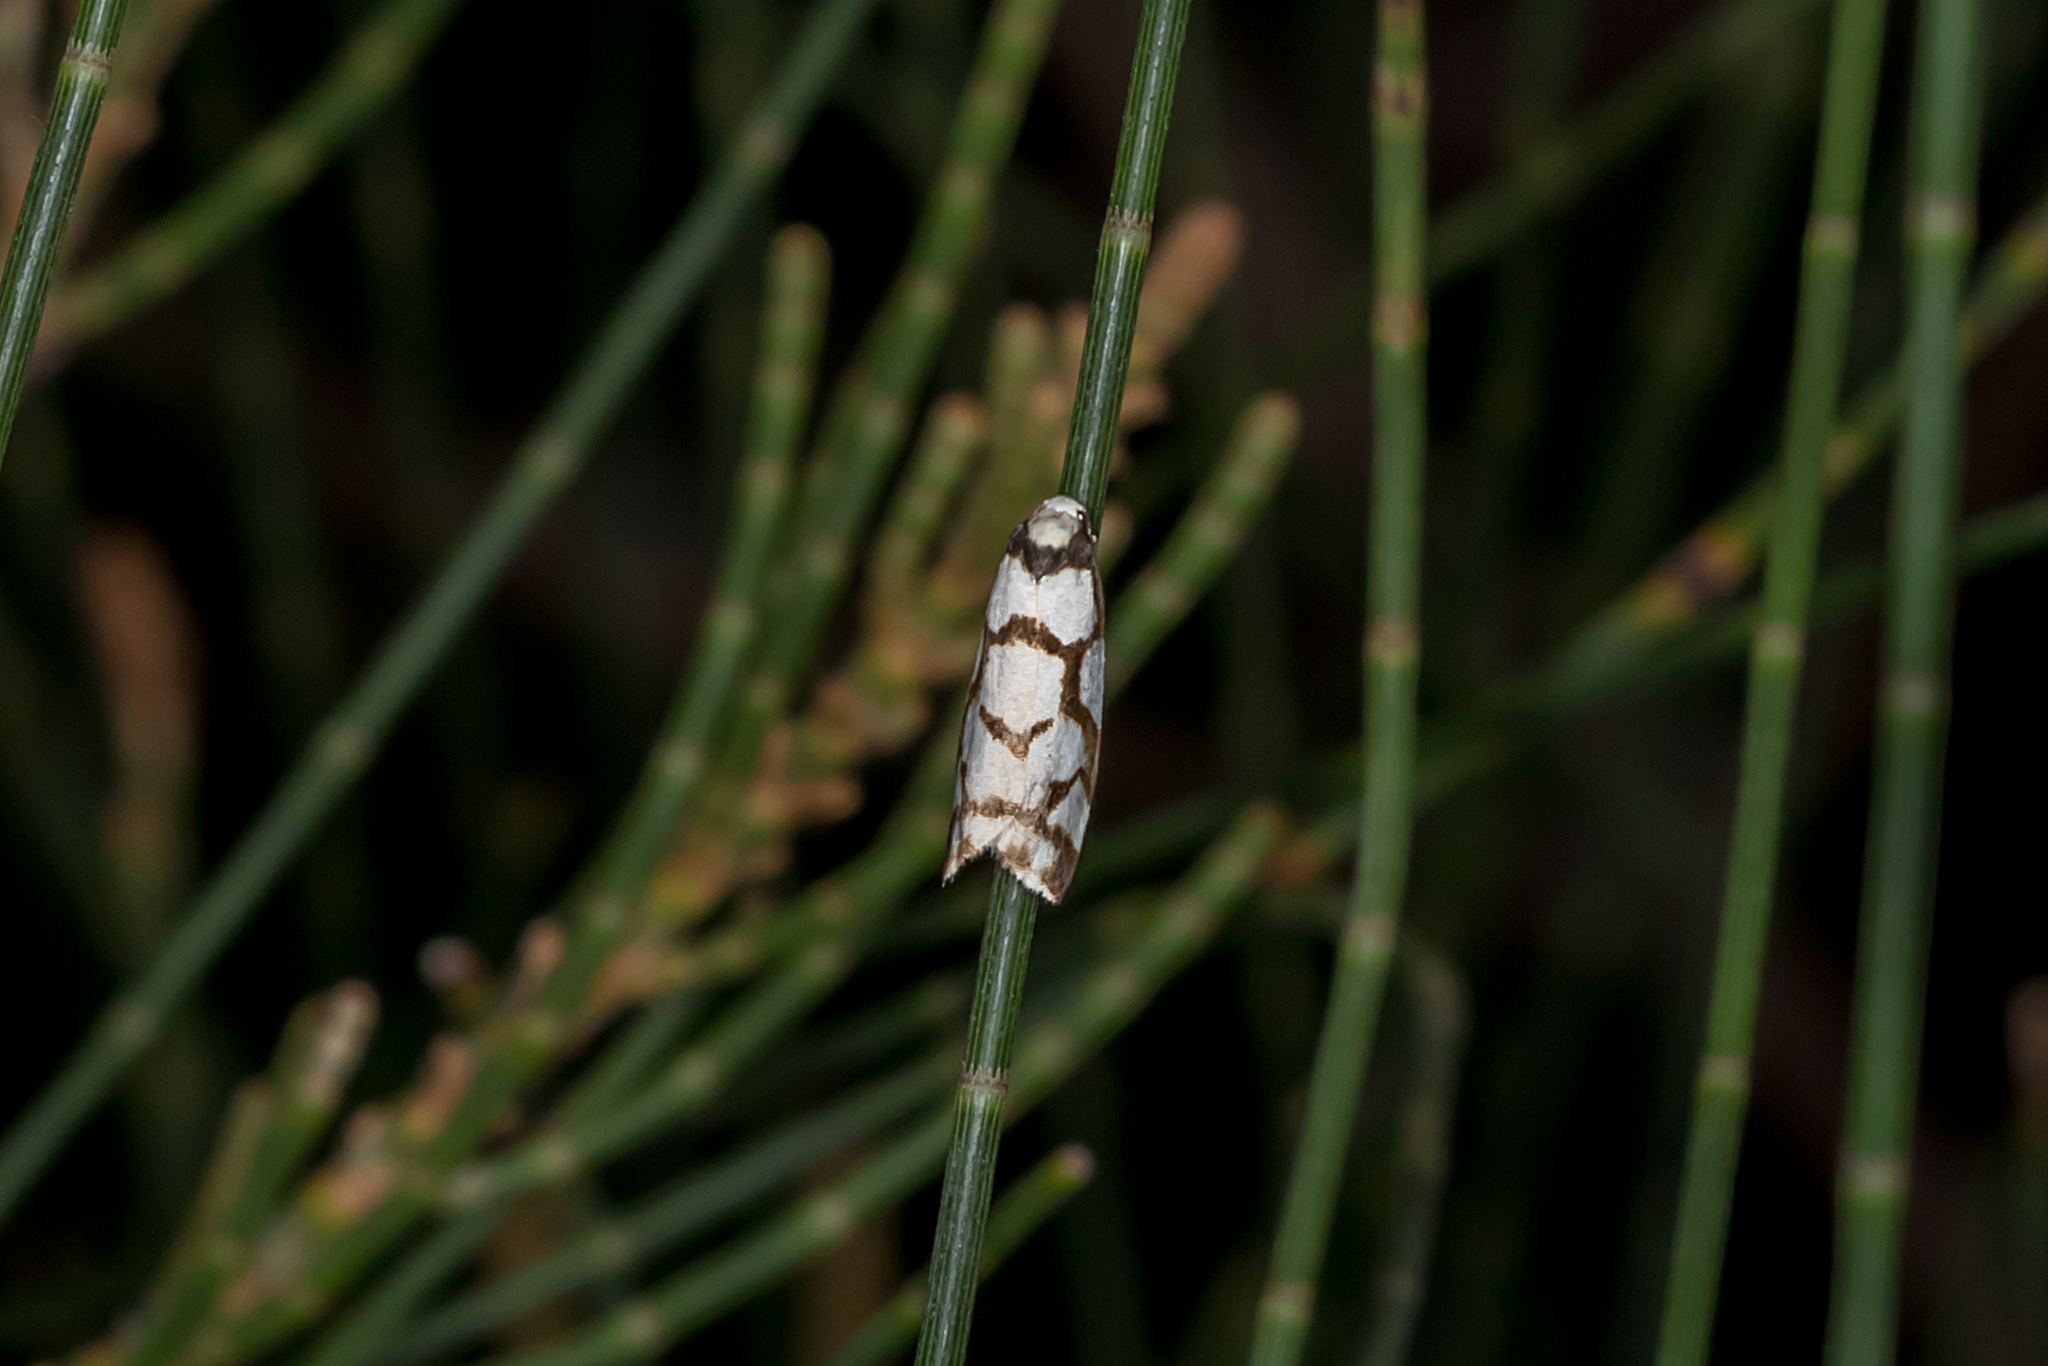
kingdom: Animalia
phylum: Arthropoda
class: Insecta
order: Lepidoptera
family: Erebidae
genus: Scaptesyle
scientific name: Scaptesyle dichotoma
